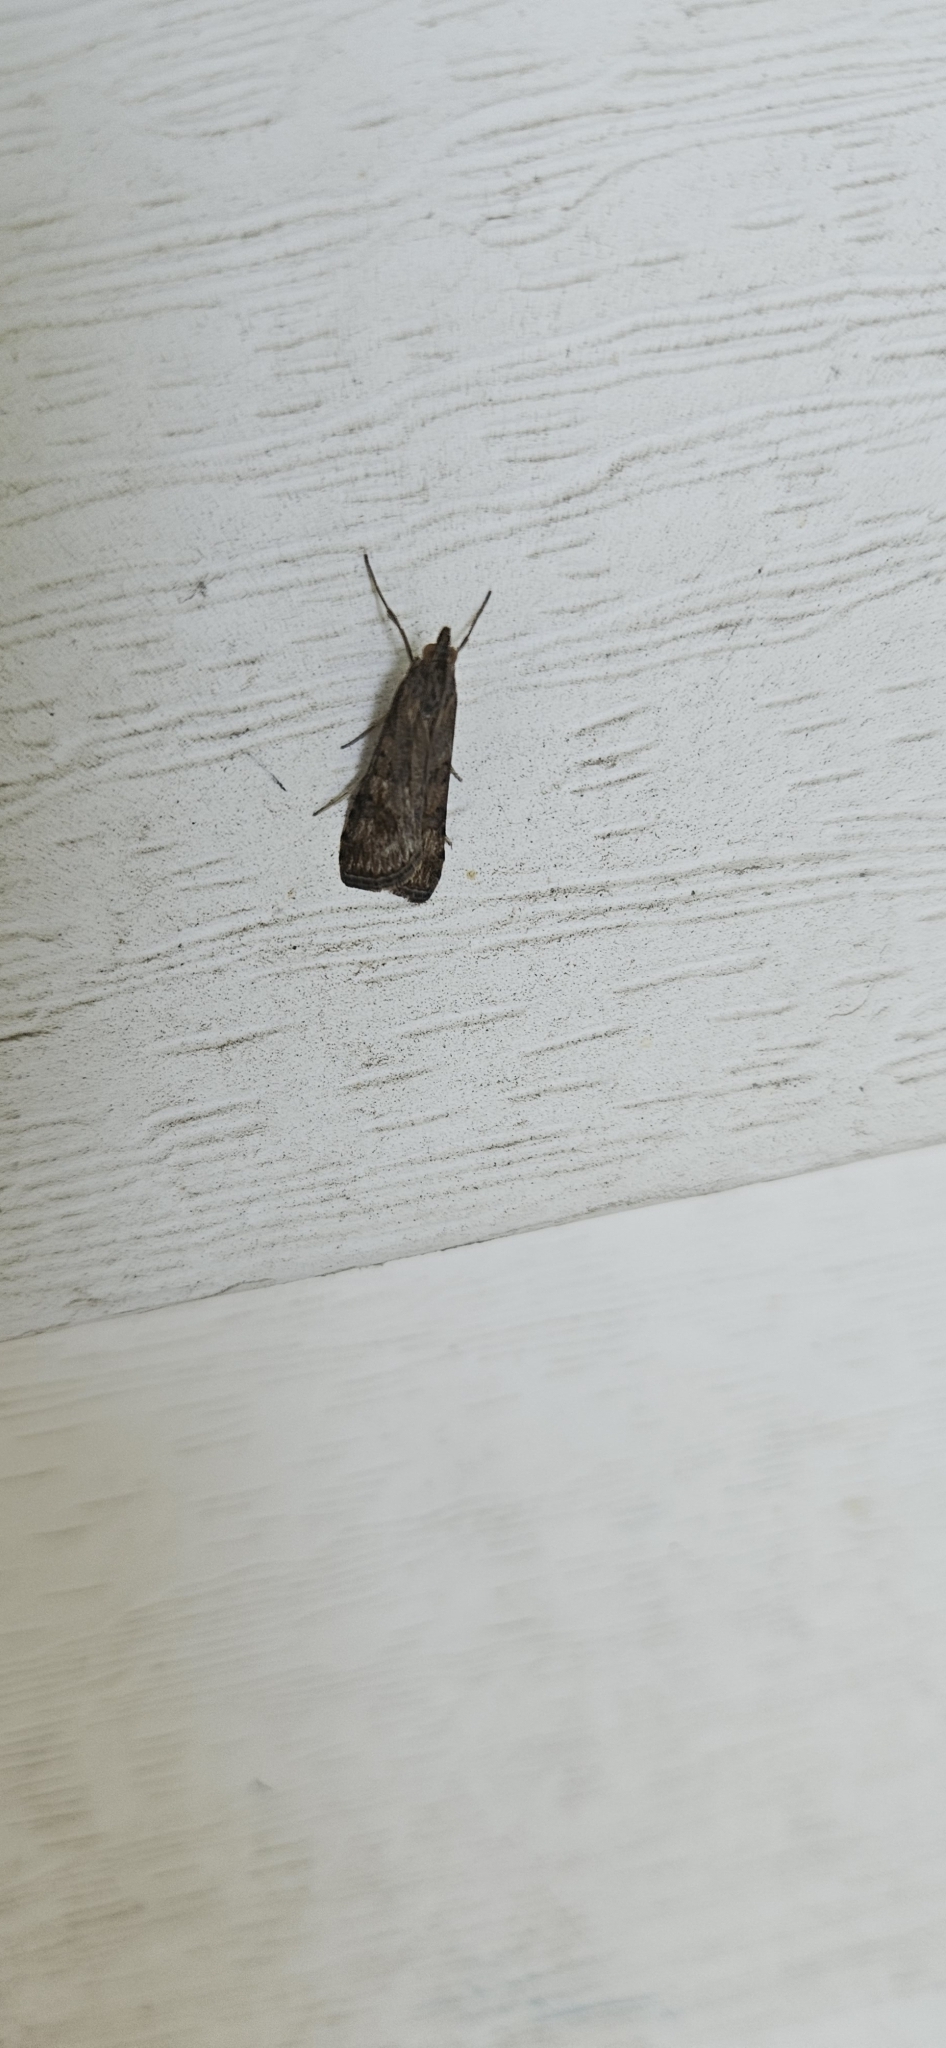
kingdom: Animalia
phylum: Arthropoda
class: Insecta
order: Lepidoptera
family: Crambidae
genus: Nomophila
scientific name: Nomophila nearctica
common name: American rush veneer
